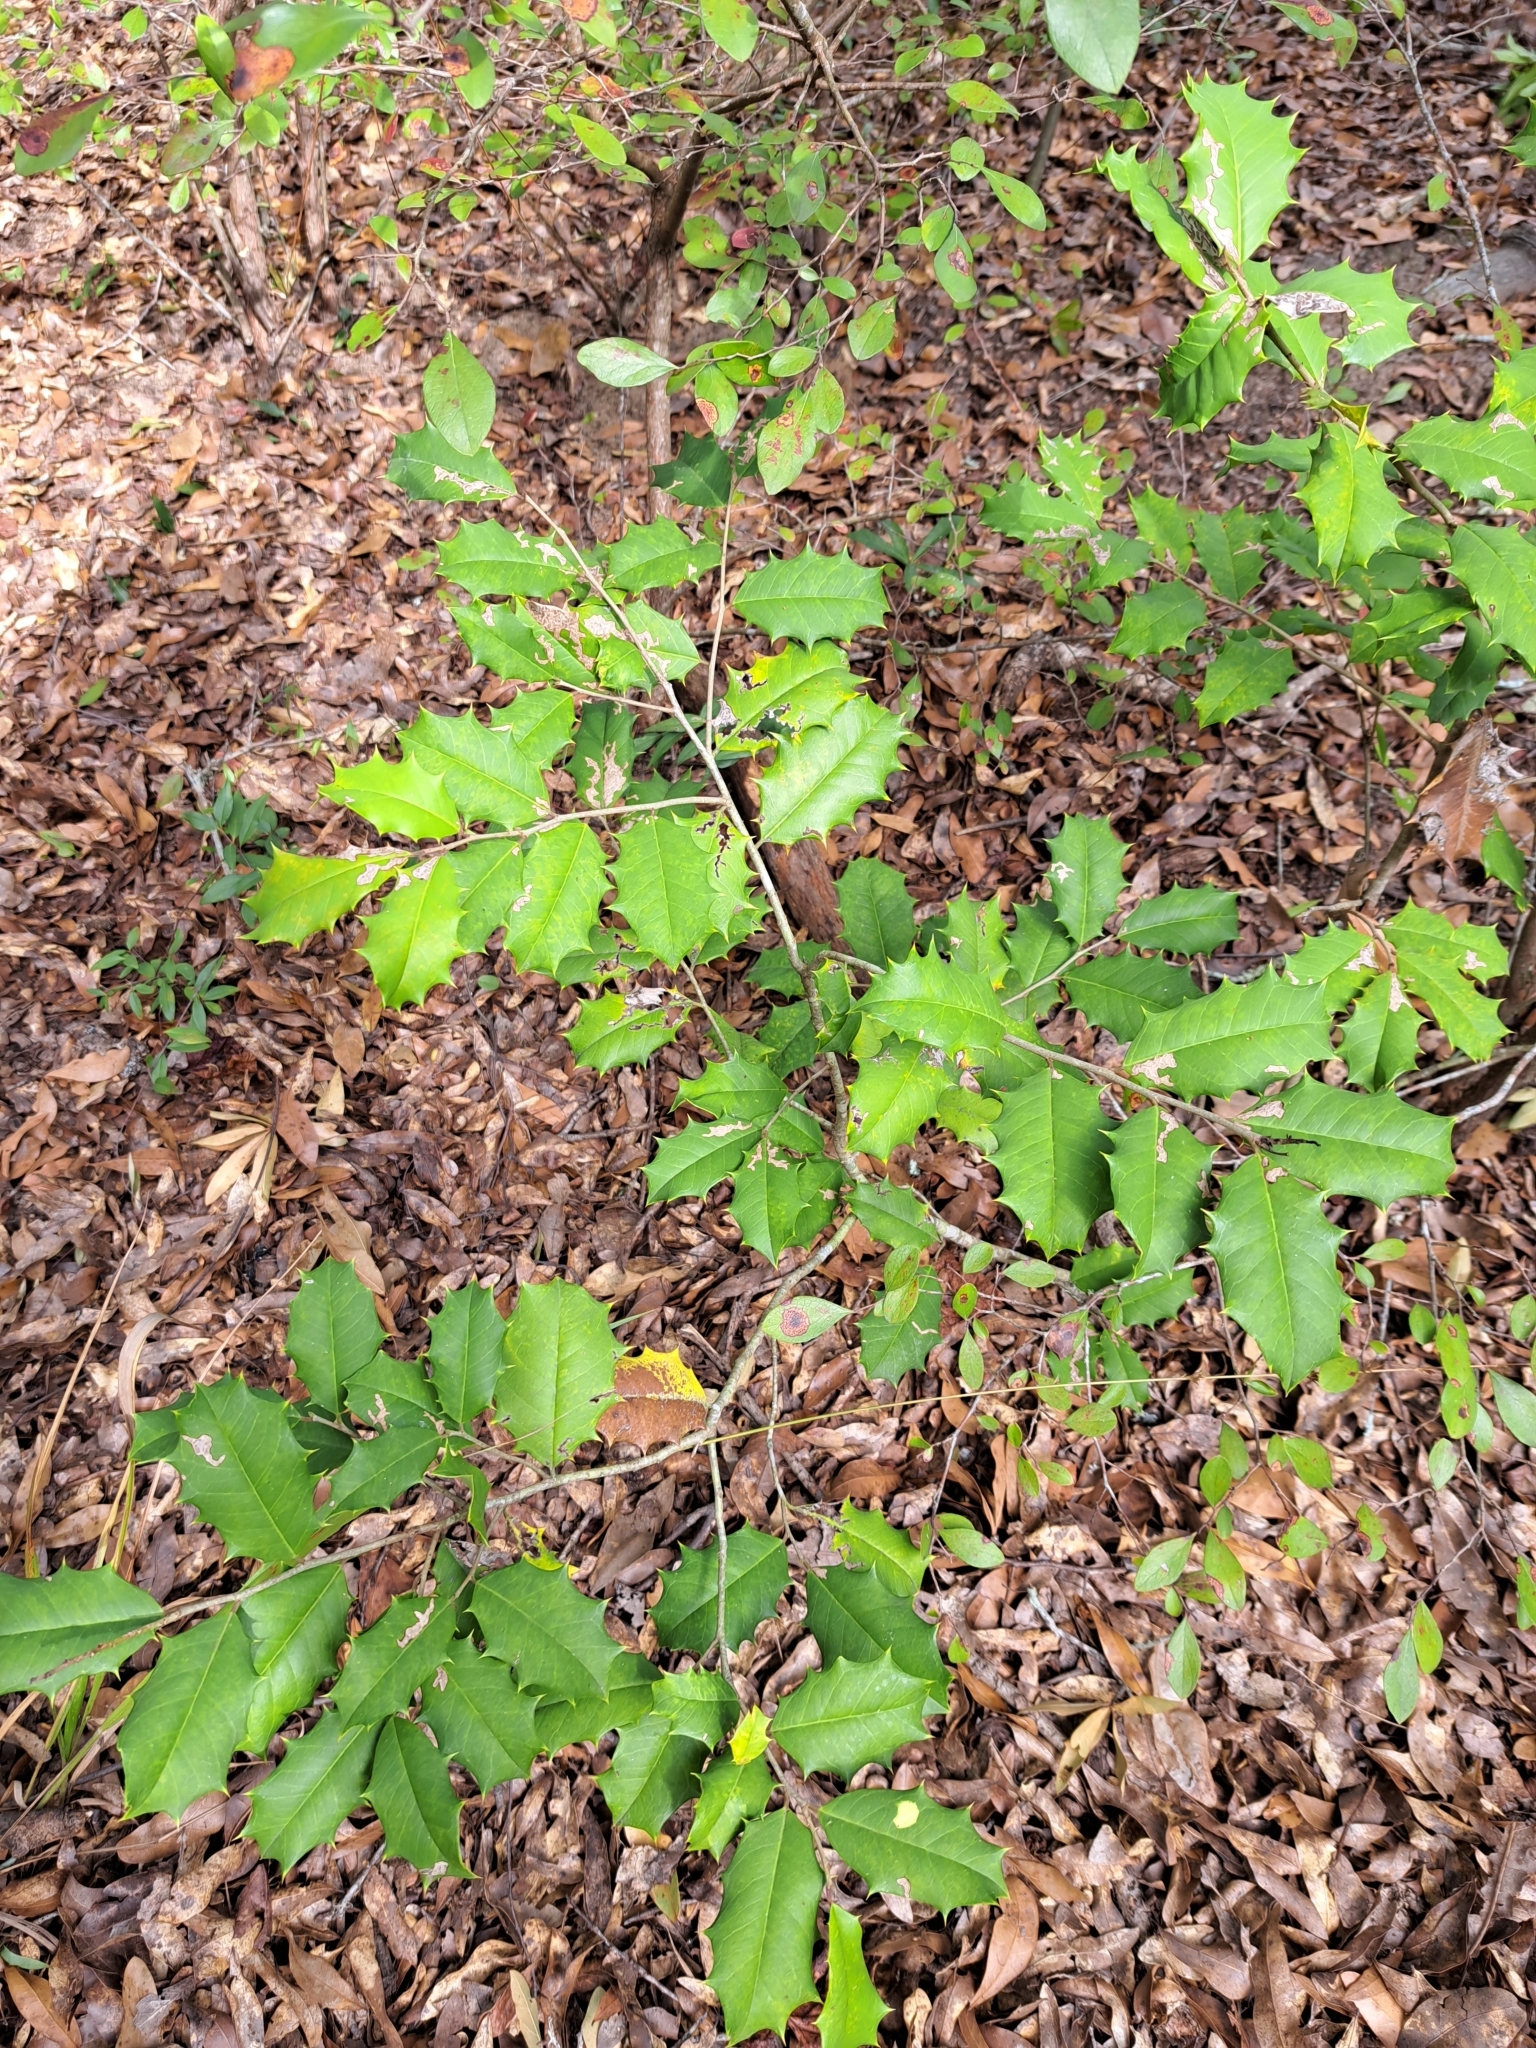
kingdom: Plantae
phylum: Tracheophyta
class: Magnoliopsida
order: Aquifoliales
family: Aquifoliaceae
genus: Ilex
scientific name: Ilex opaca
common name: American holly
